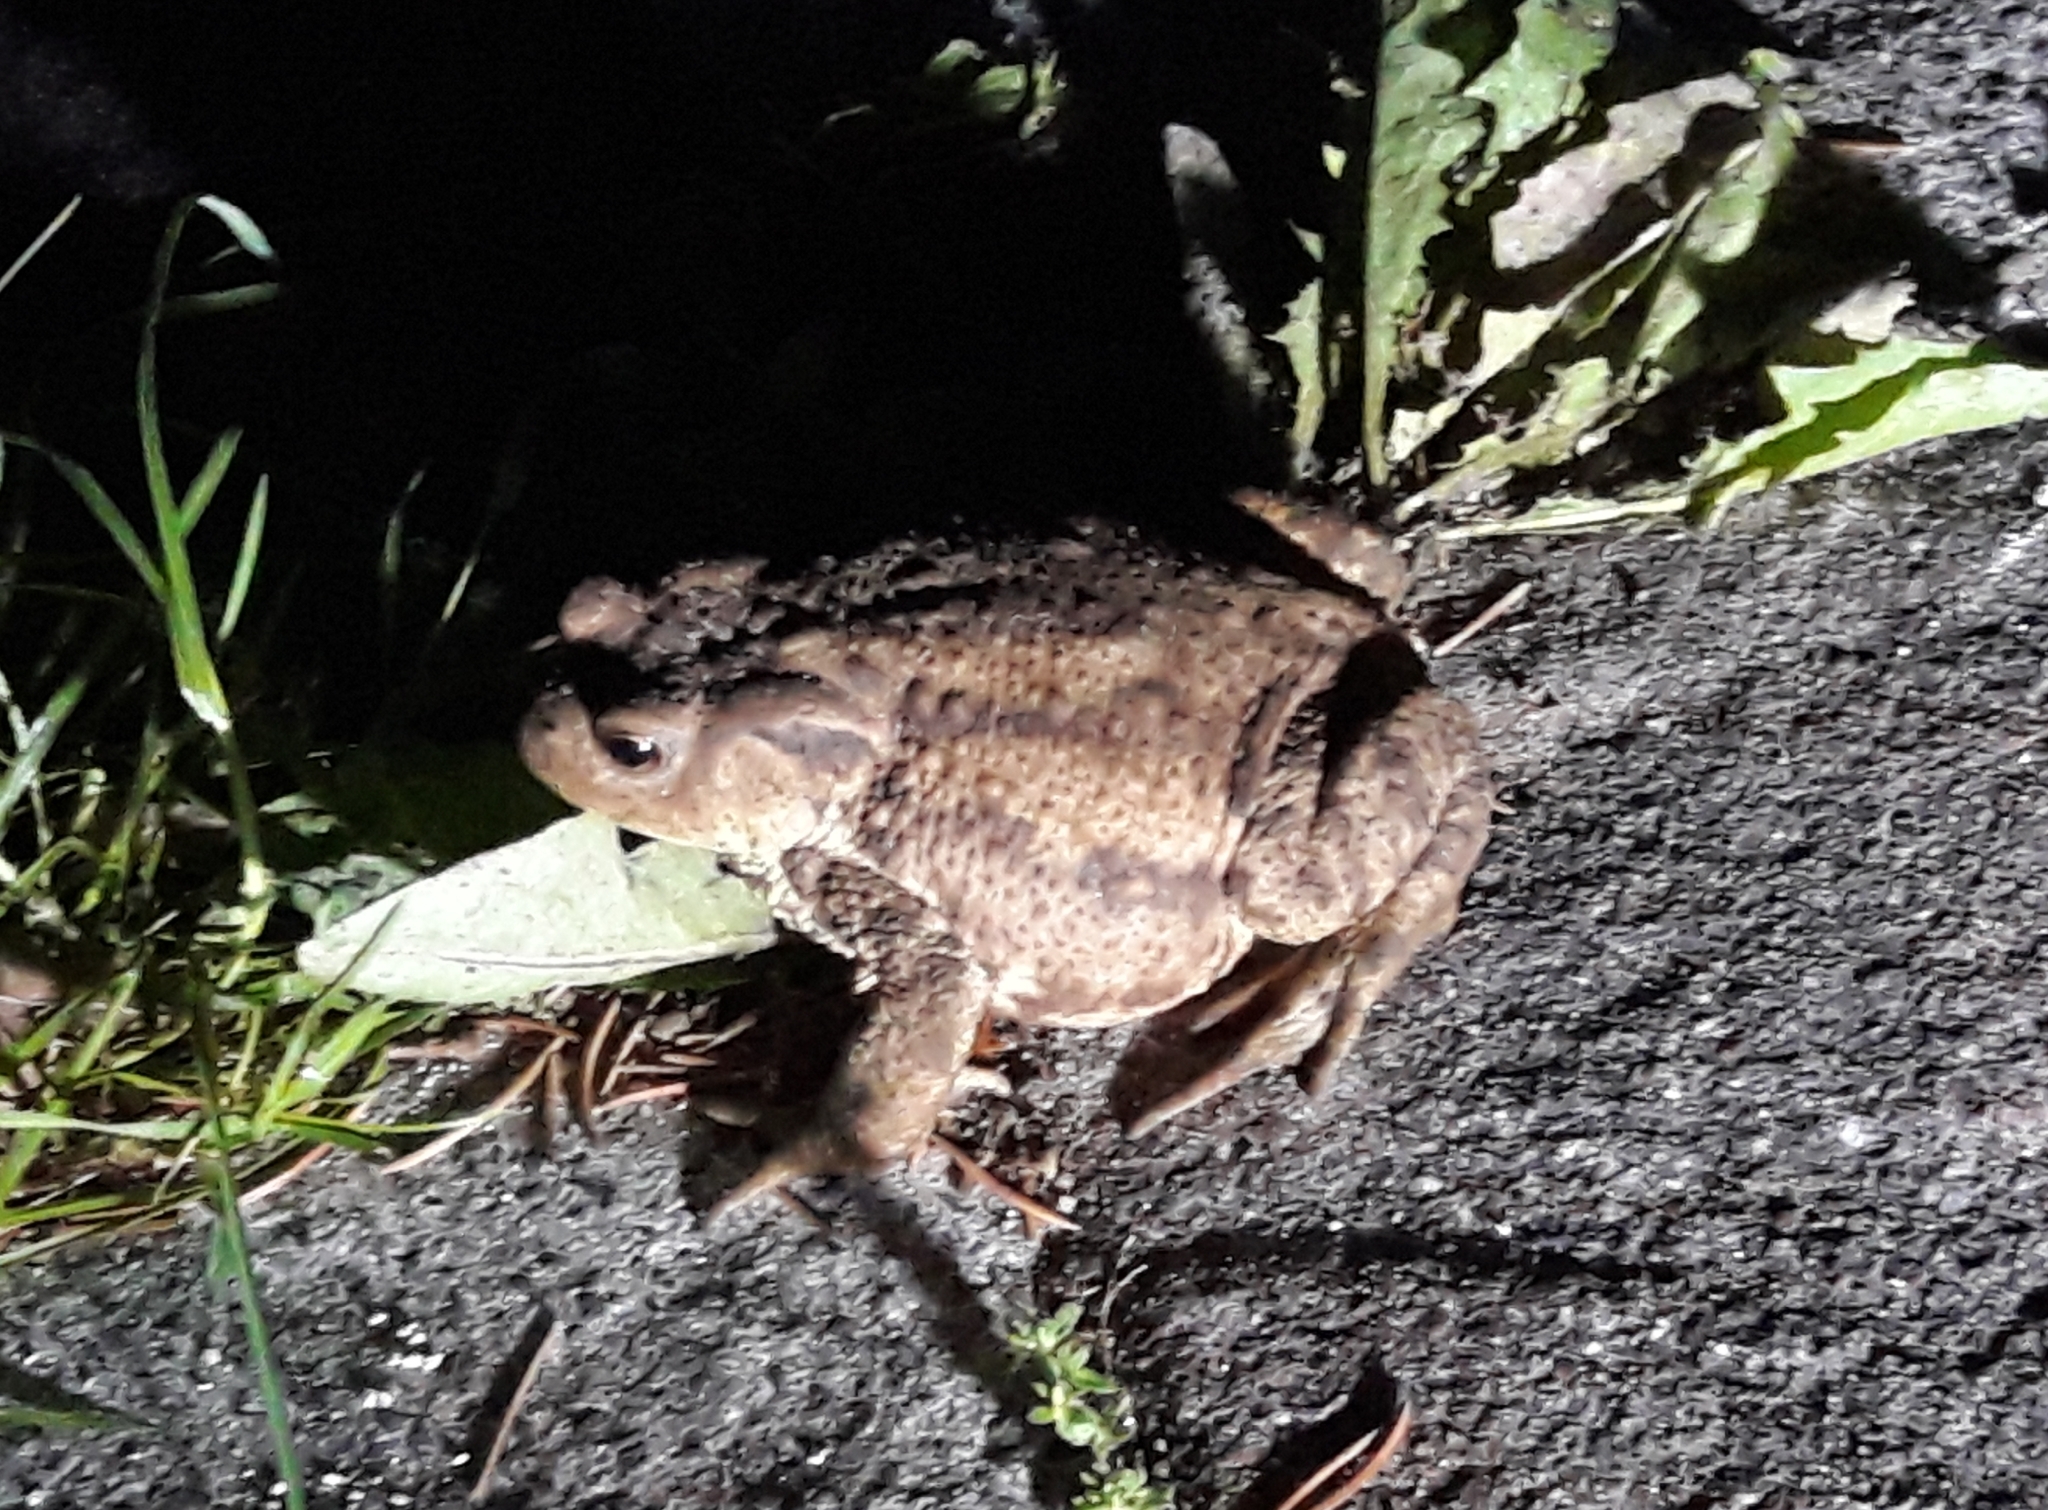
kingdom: Animalia
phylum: Chordata
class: Amphibia
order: Anura
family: Bufonidae
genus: Bufo
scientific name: Bufo bufo
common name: Common toad
